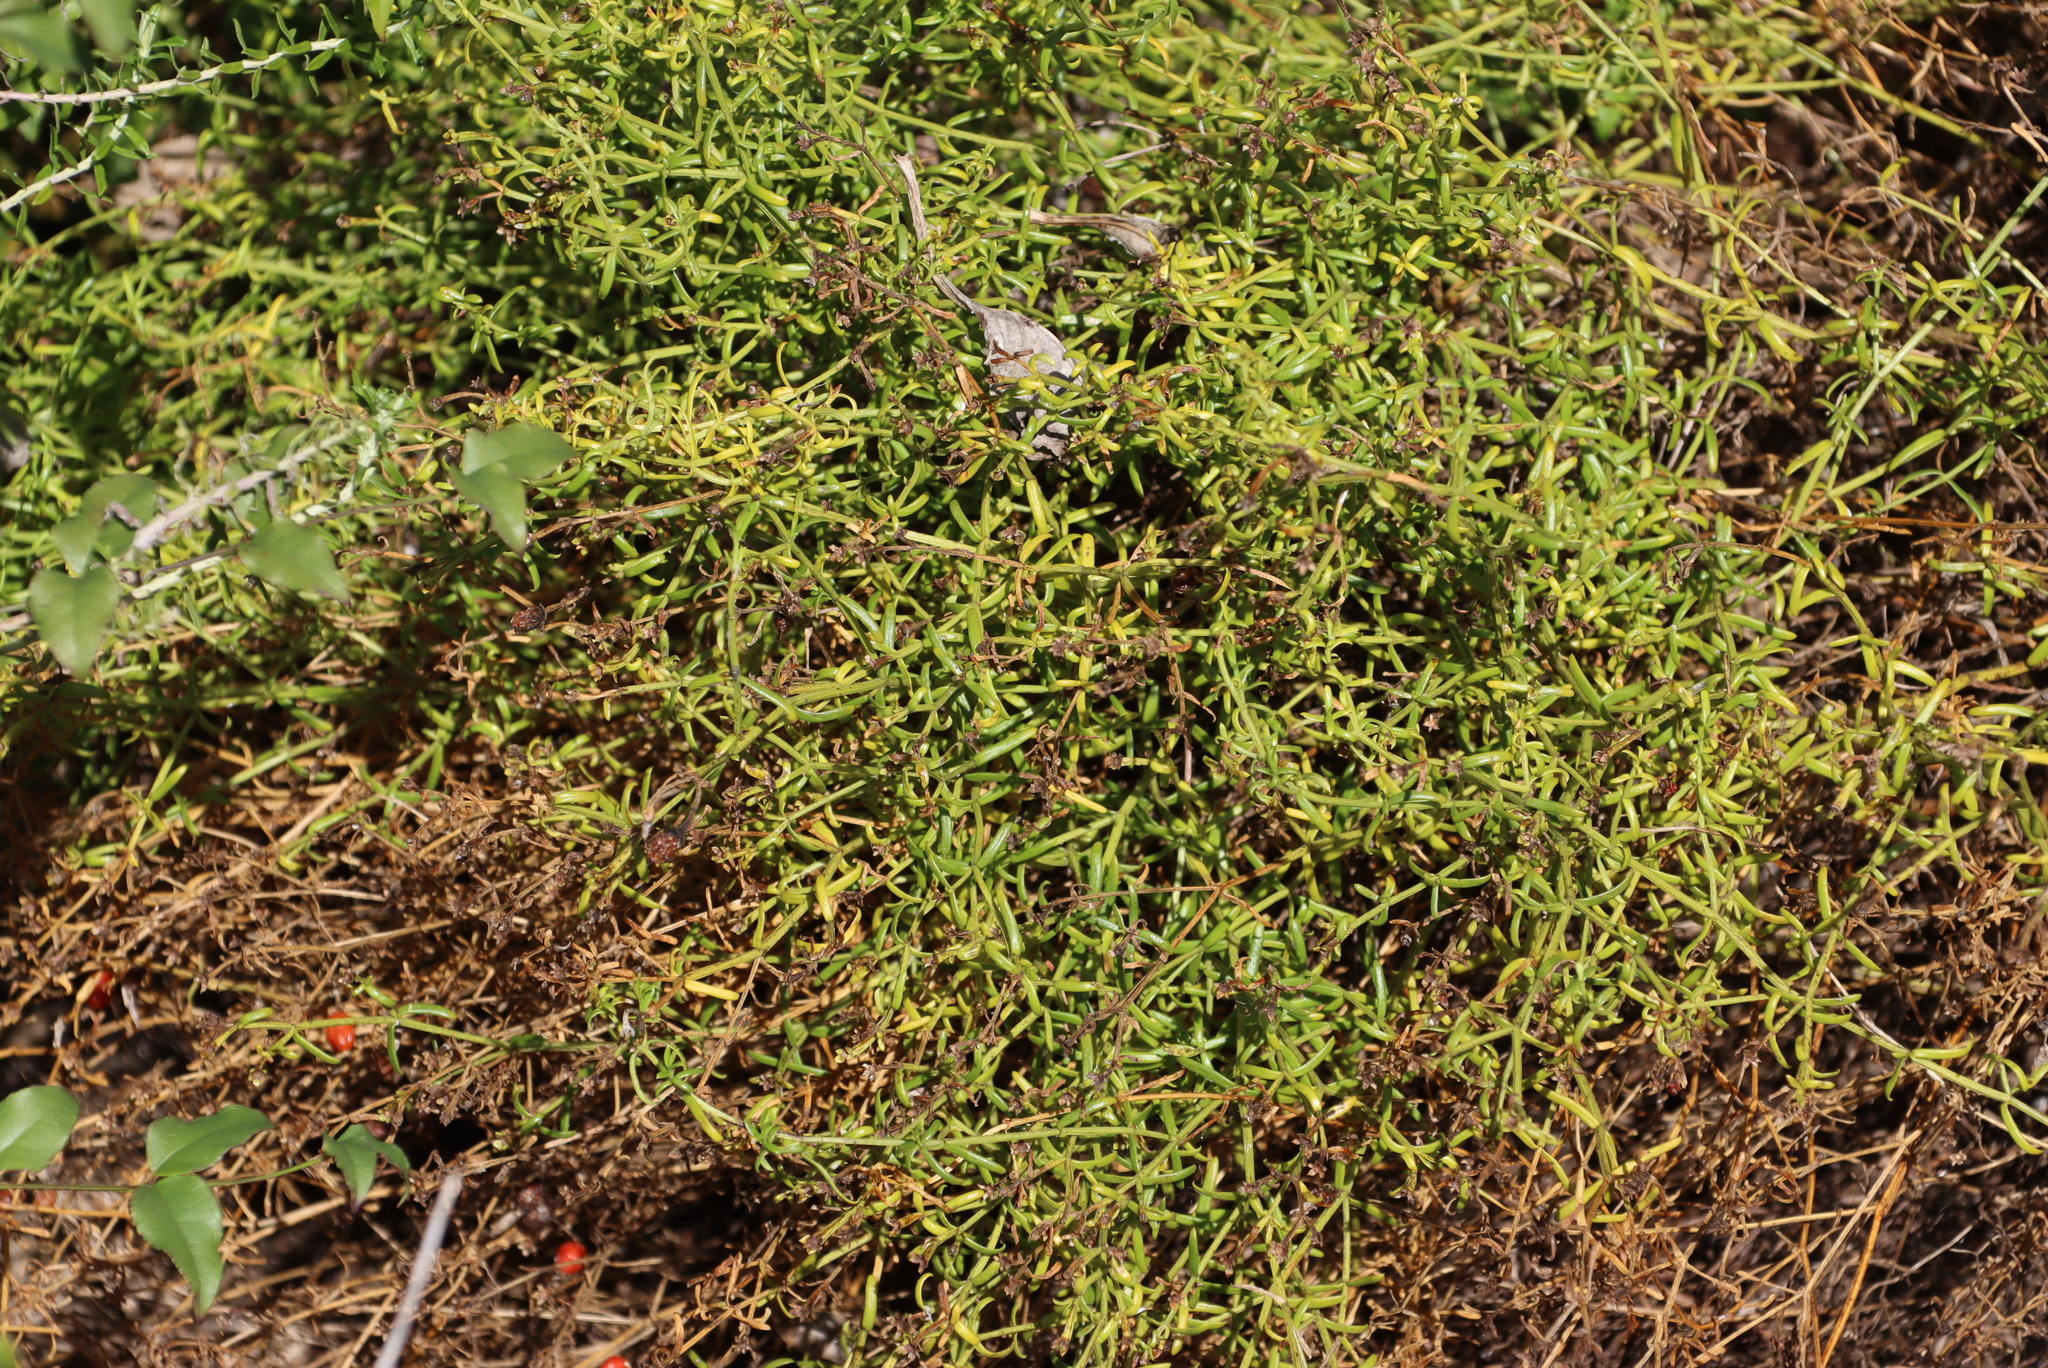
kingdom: Plantae
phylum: Tracheophyta
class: Magnoliopsida
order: Gentianales
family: Gentianaceae
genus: Chironia
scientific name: Chironia baccifera
